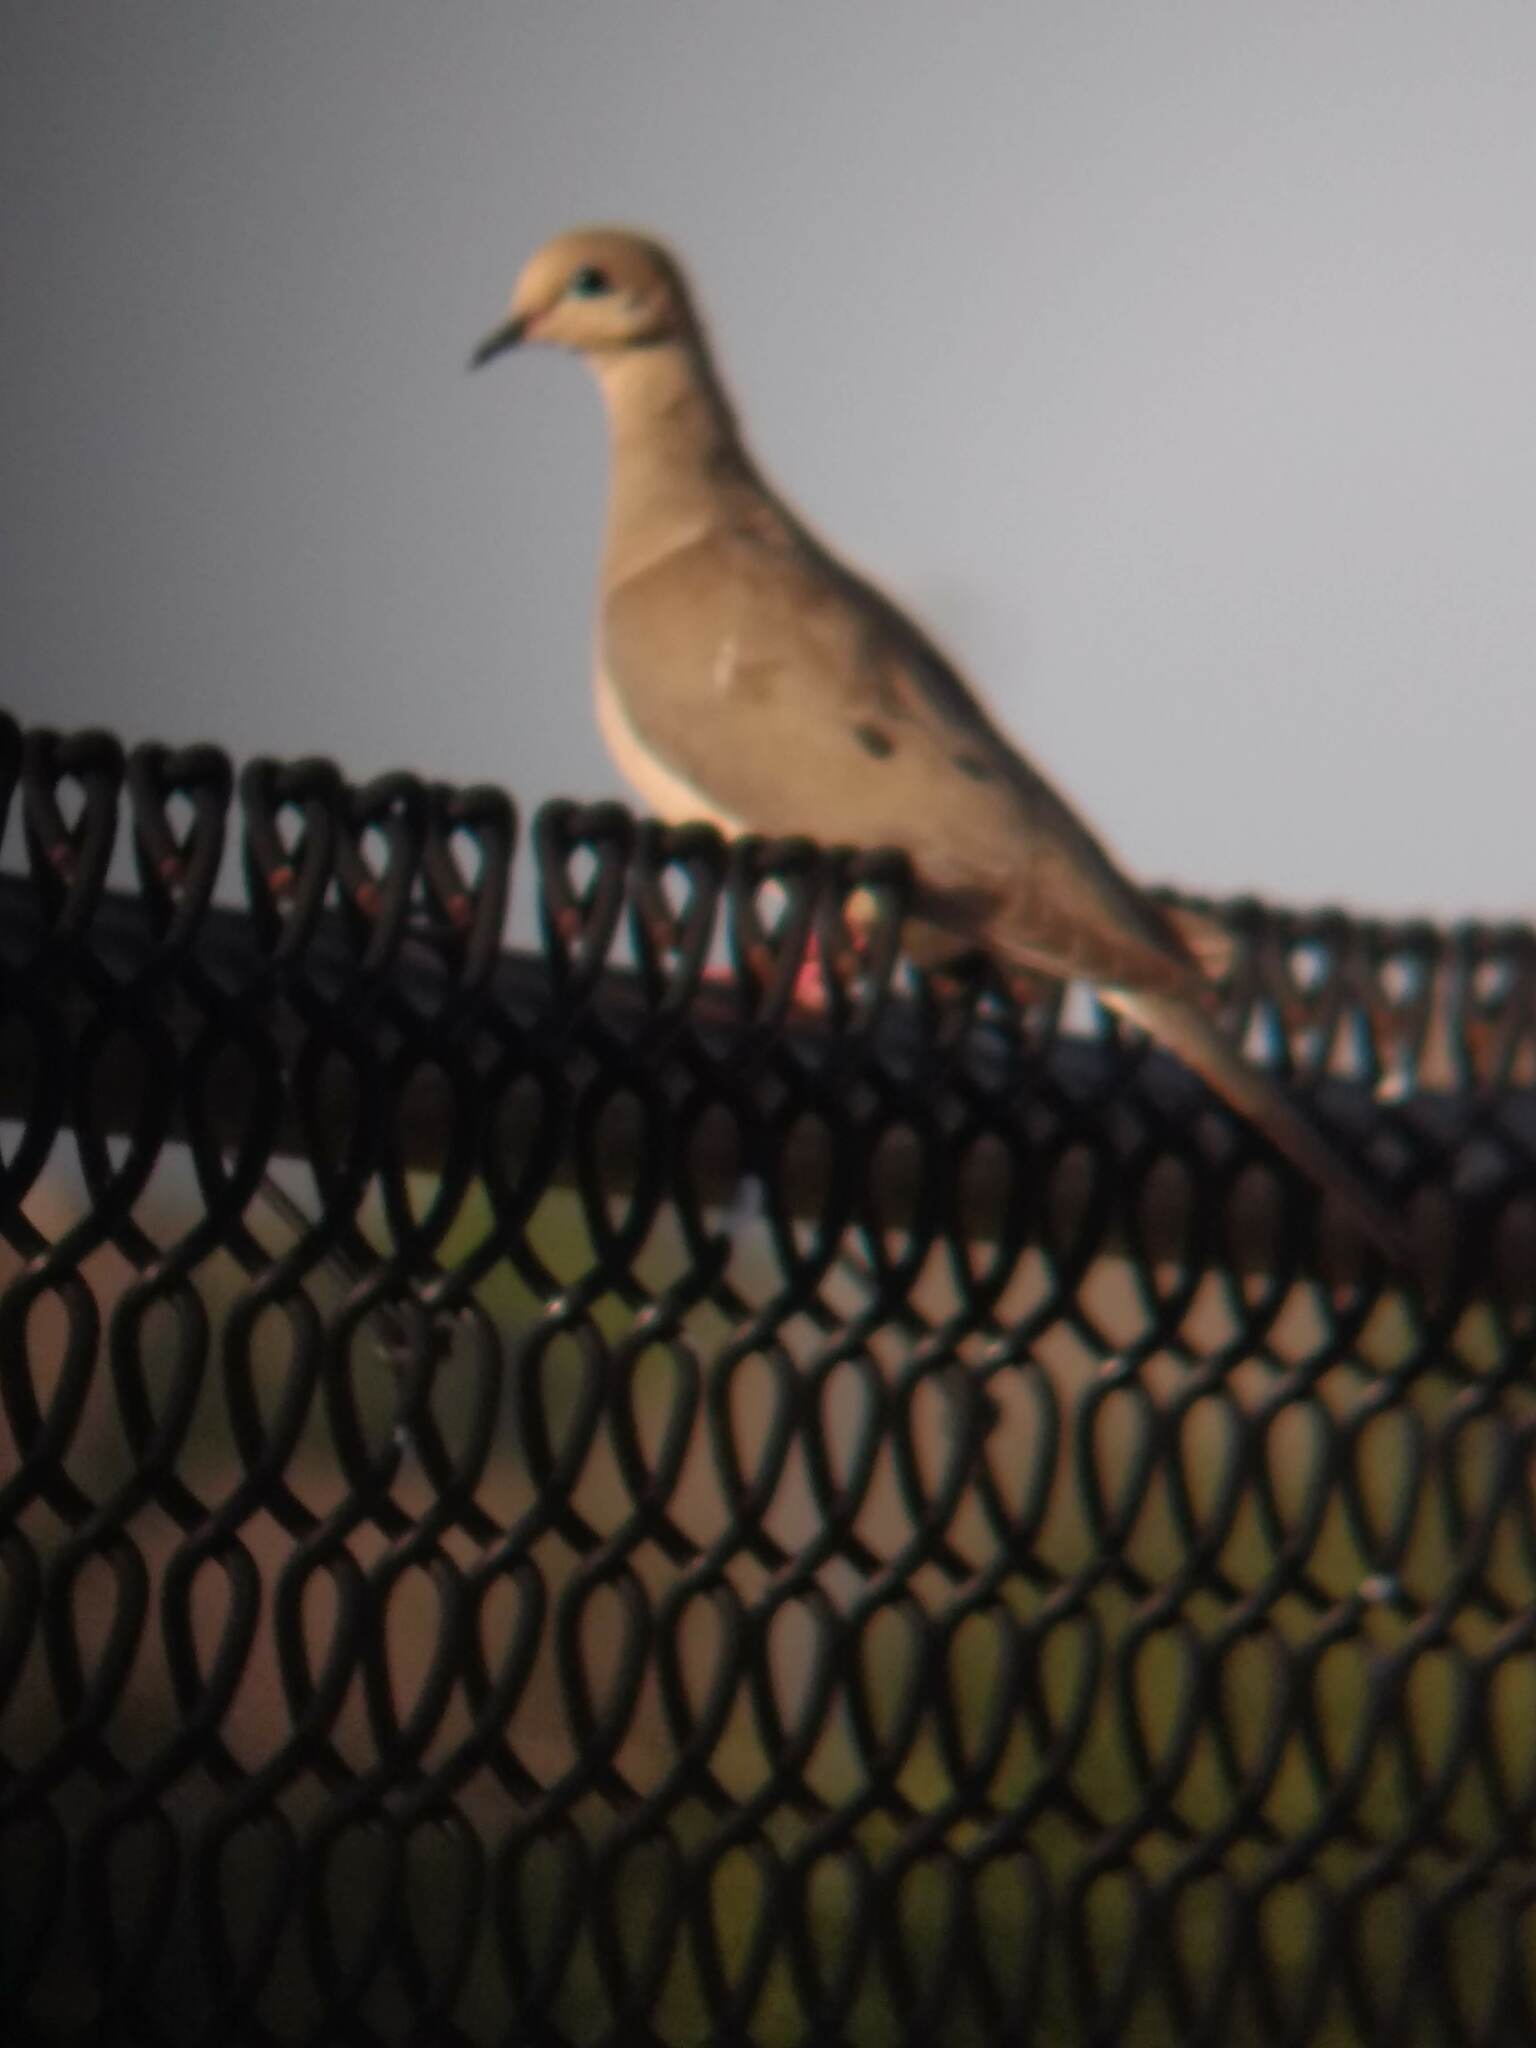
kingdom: Animalia
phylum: Chordata
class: Aves
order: Columbiformes
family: Columbidae
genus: Zenaida
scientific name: Zenaida macroura
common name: Mourning dove
